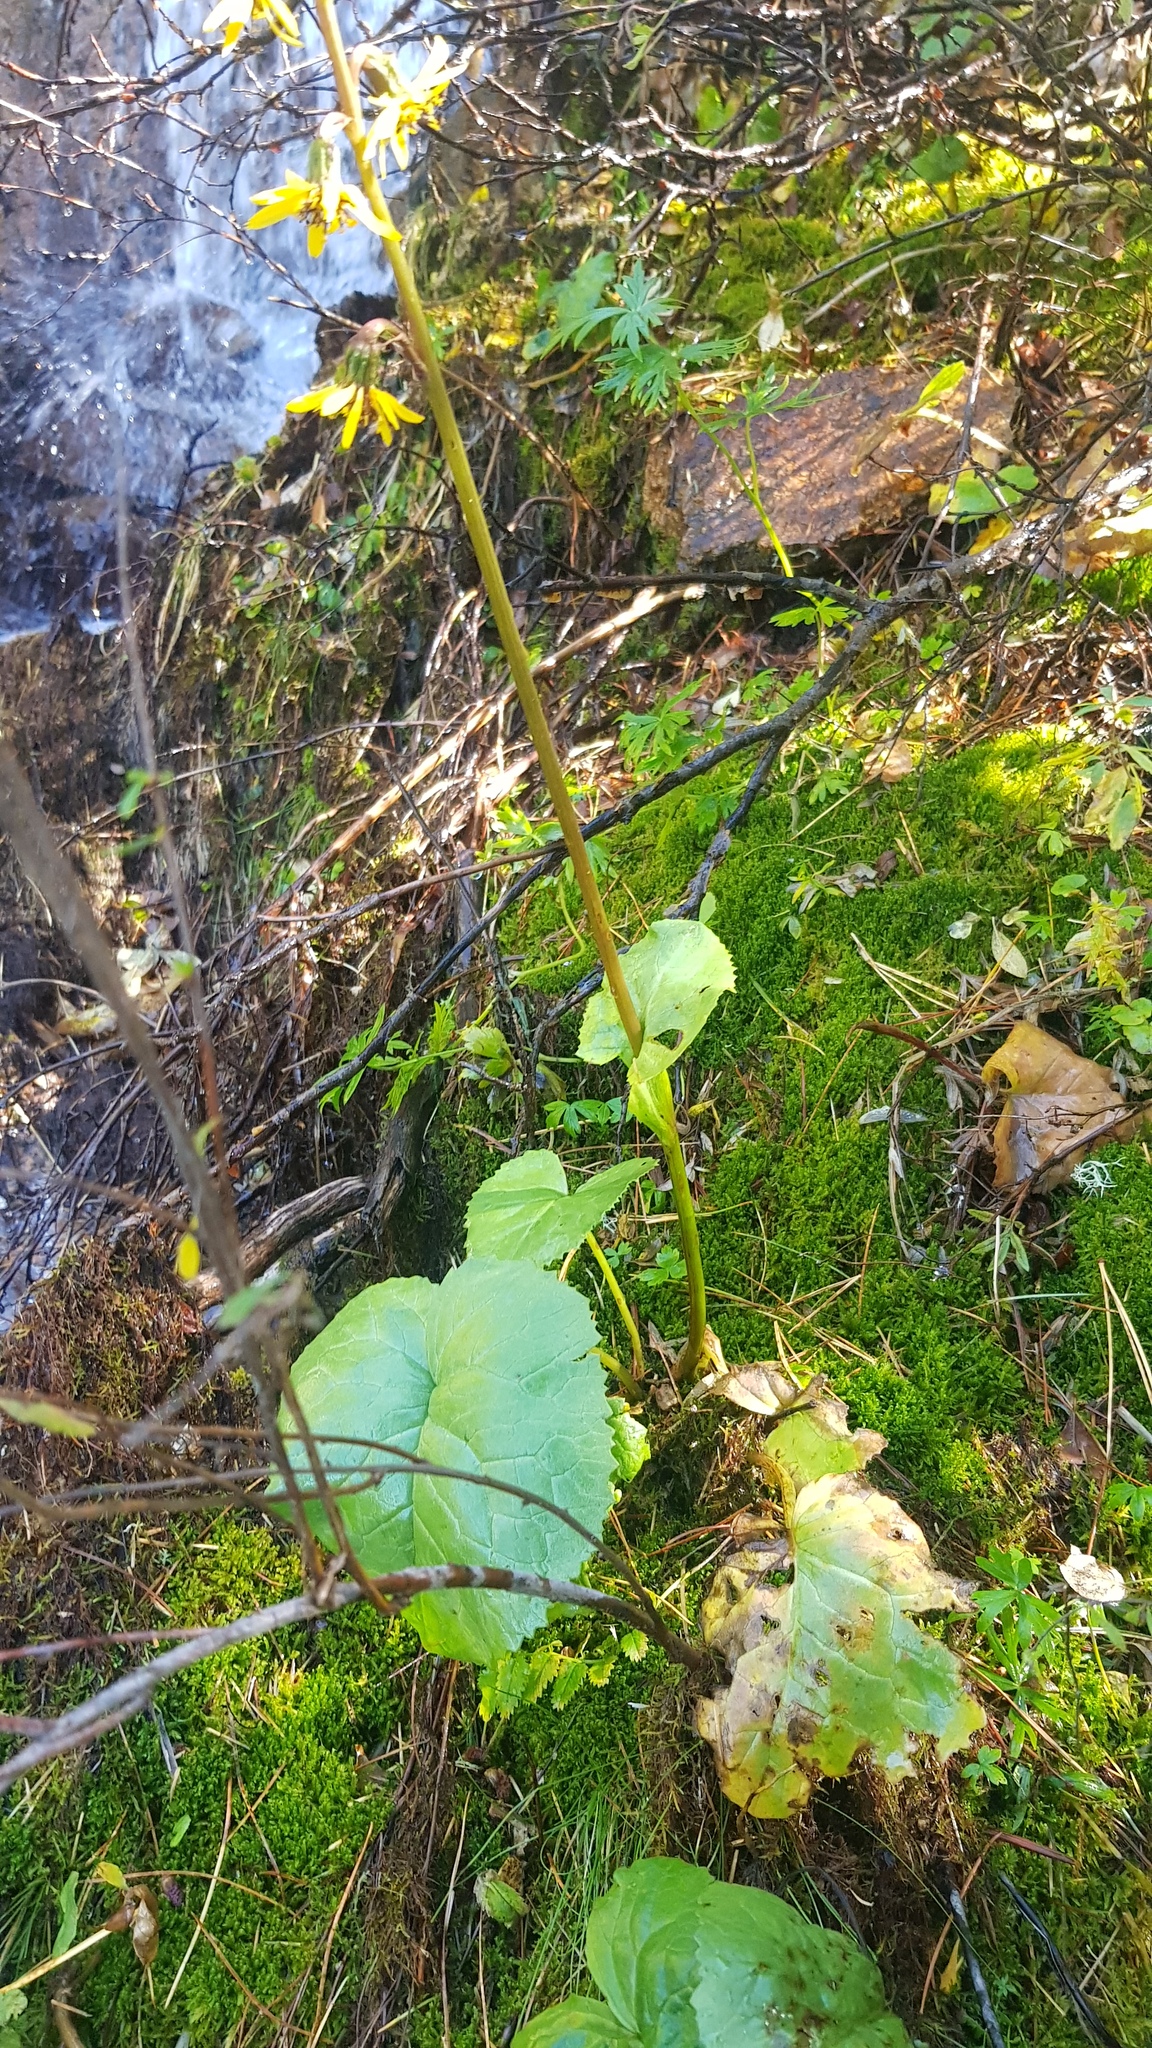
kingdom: Plantae
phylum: Tracheophyta
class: Magnoliopsida
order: Asterales
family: Asteraceae
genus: Ligularia
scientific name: Ligularia sibirica
